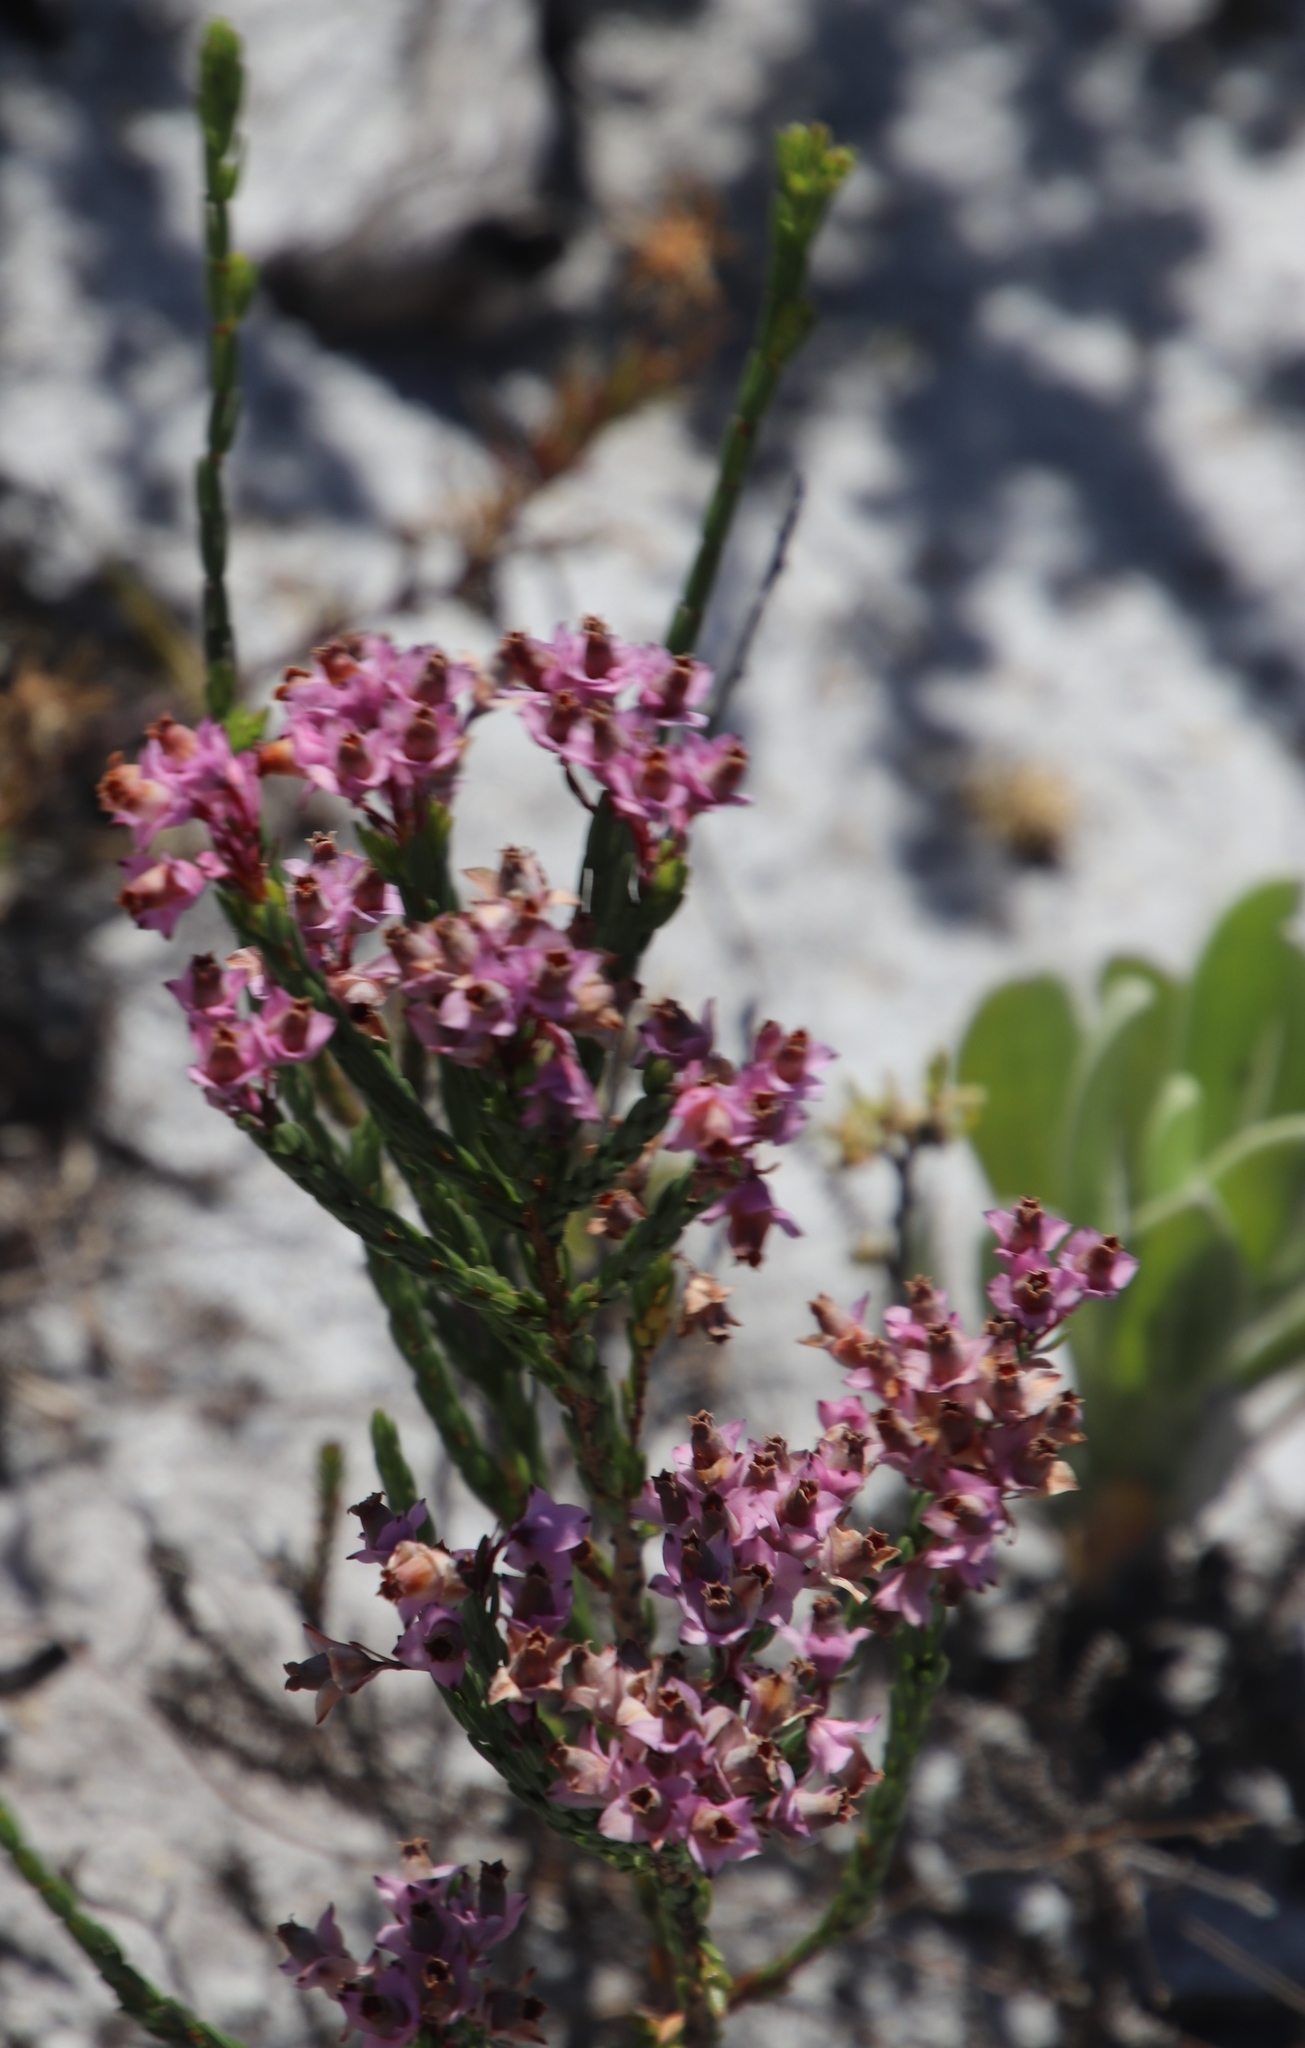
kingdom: Plantae
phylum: Tracheophyta
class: Magnoliopsida
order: Ericales
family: Ericaceae
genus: Erica
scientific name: Erica corifolia
